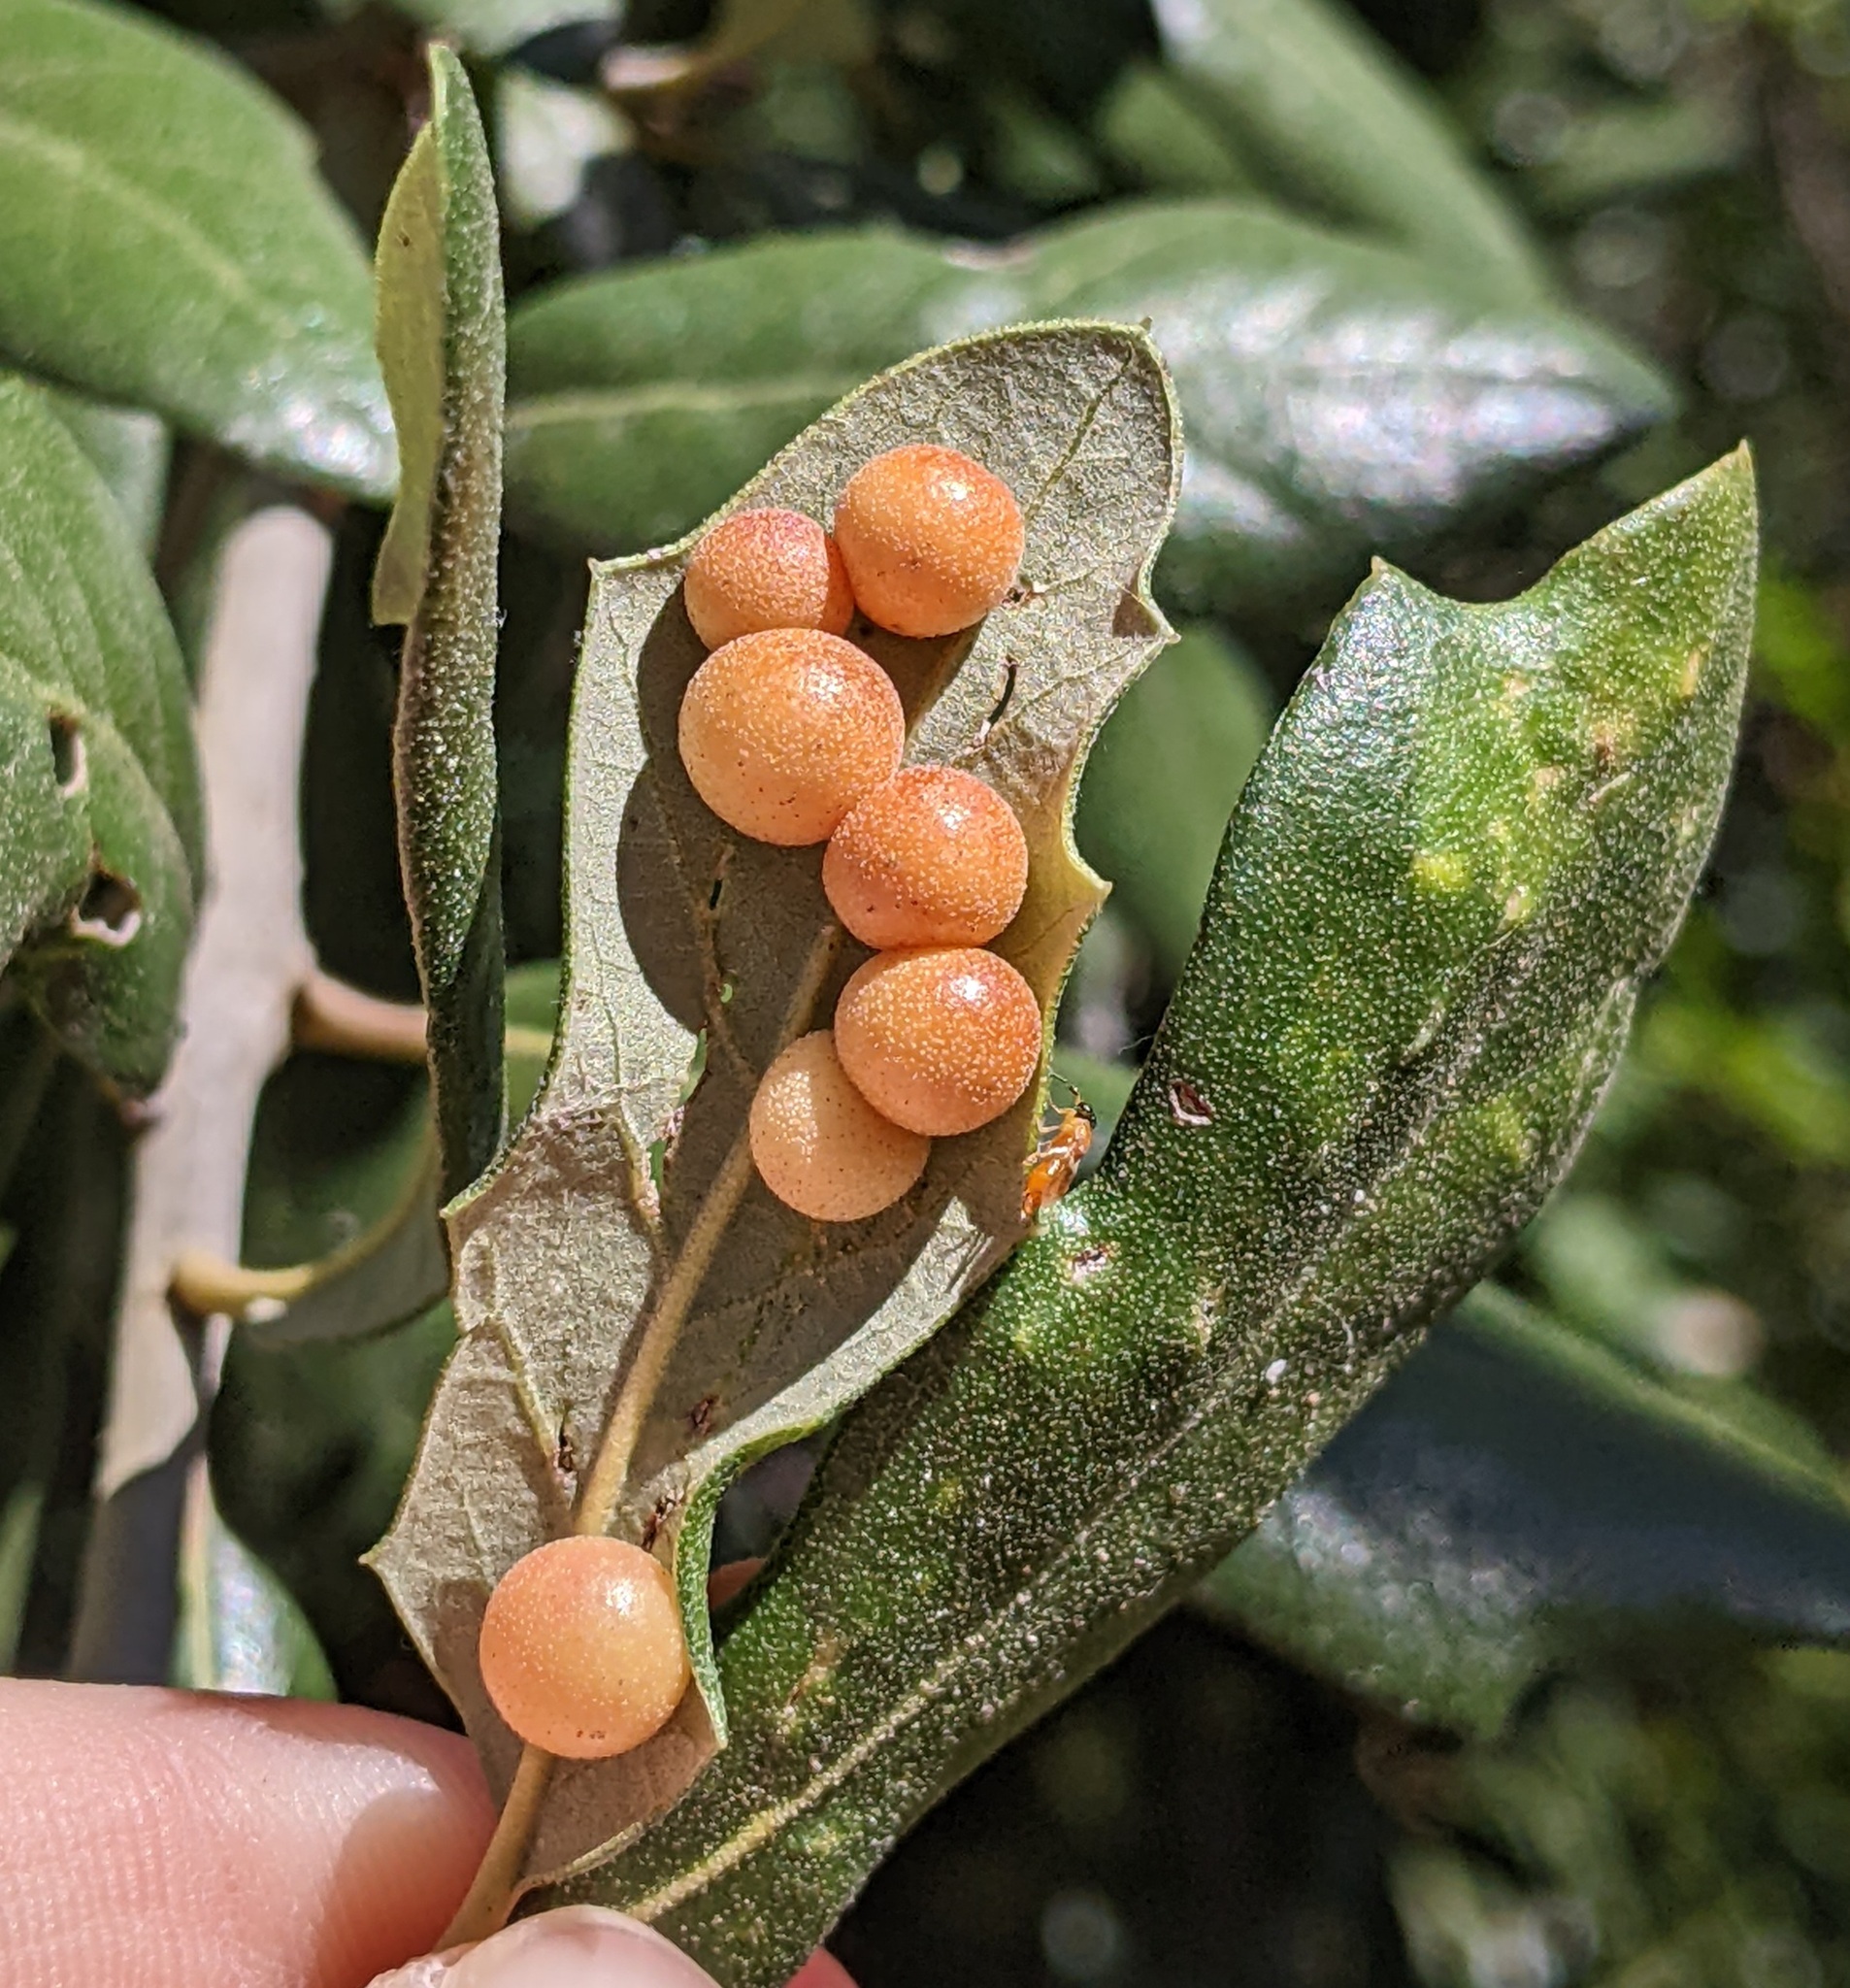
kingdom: Animalia
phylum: Arthropoda
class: Insecta
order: Hymenoptera
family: Cynipidae
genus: Belonocnema
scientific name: Belonocnema kinseyi
